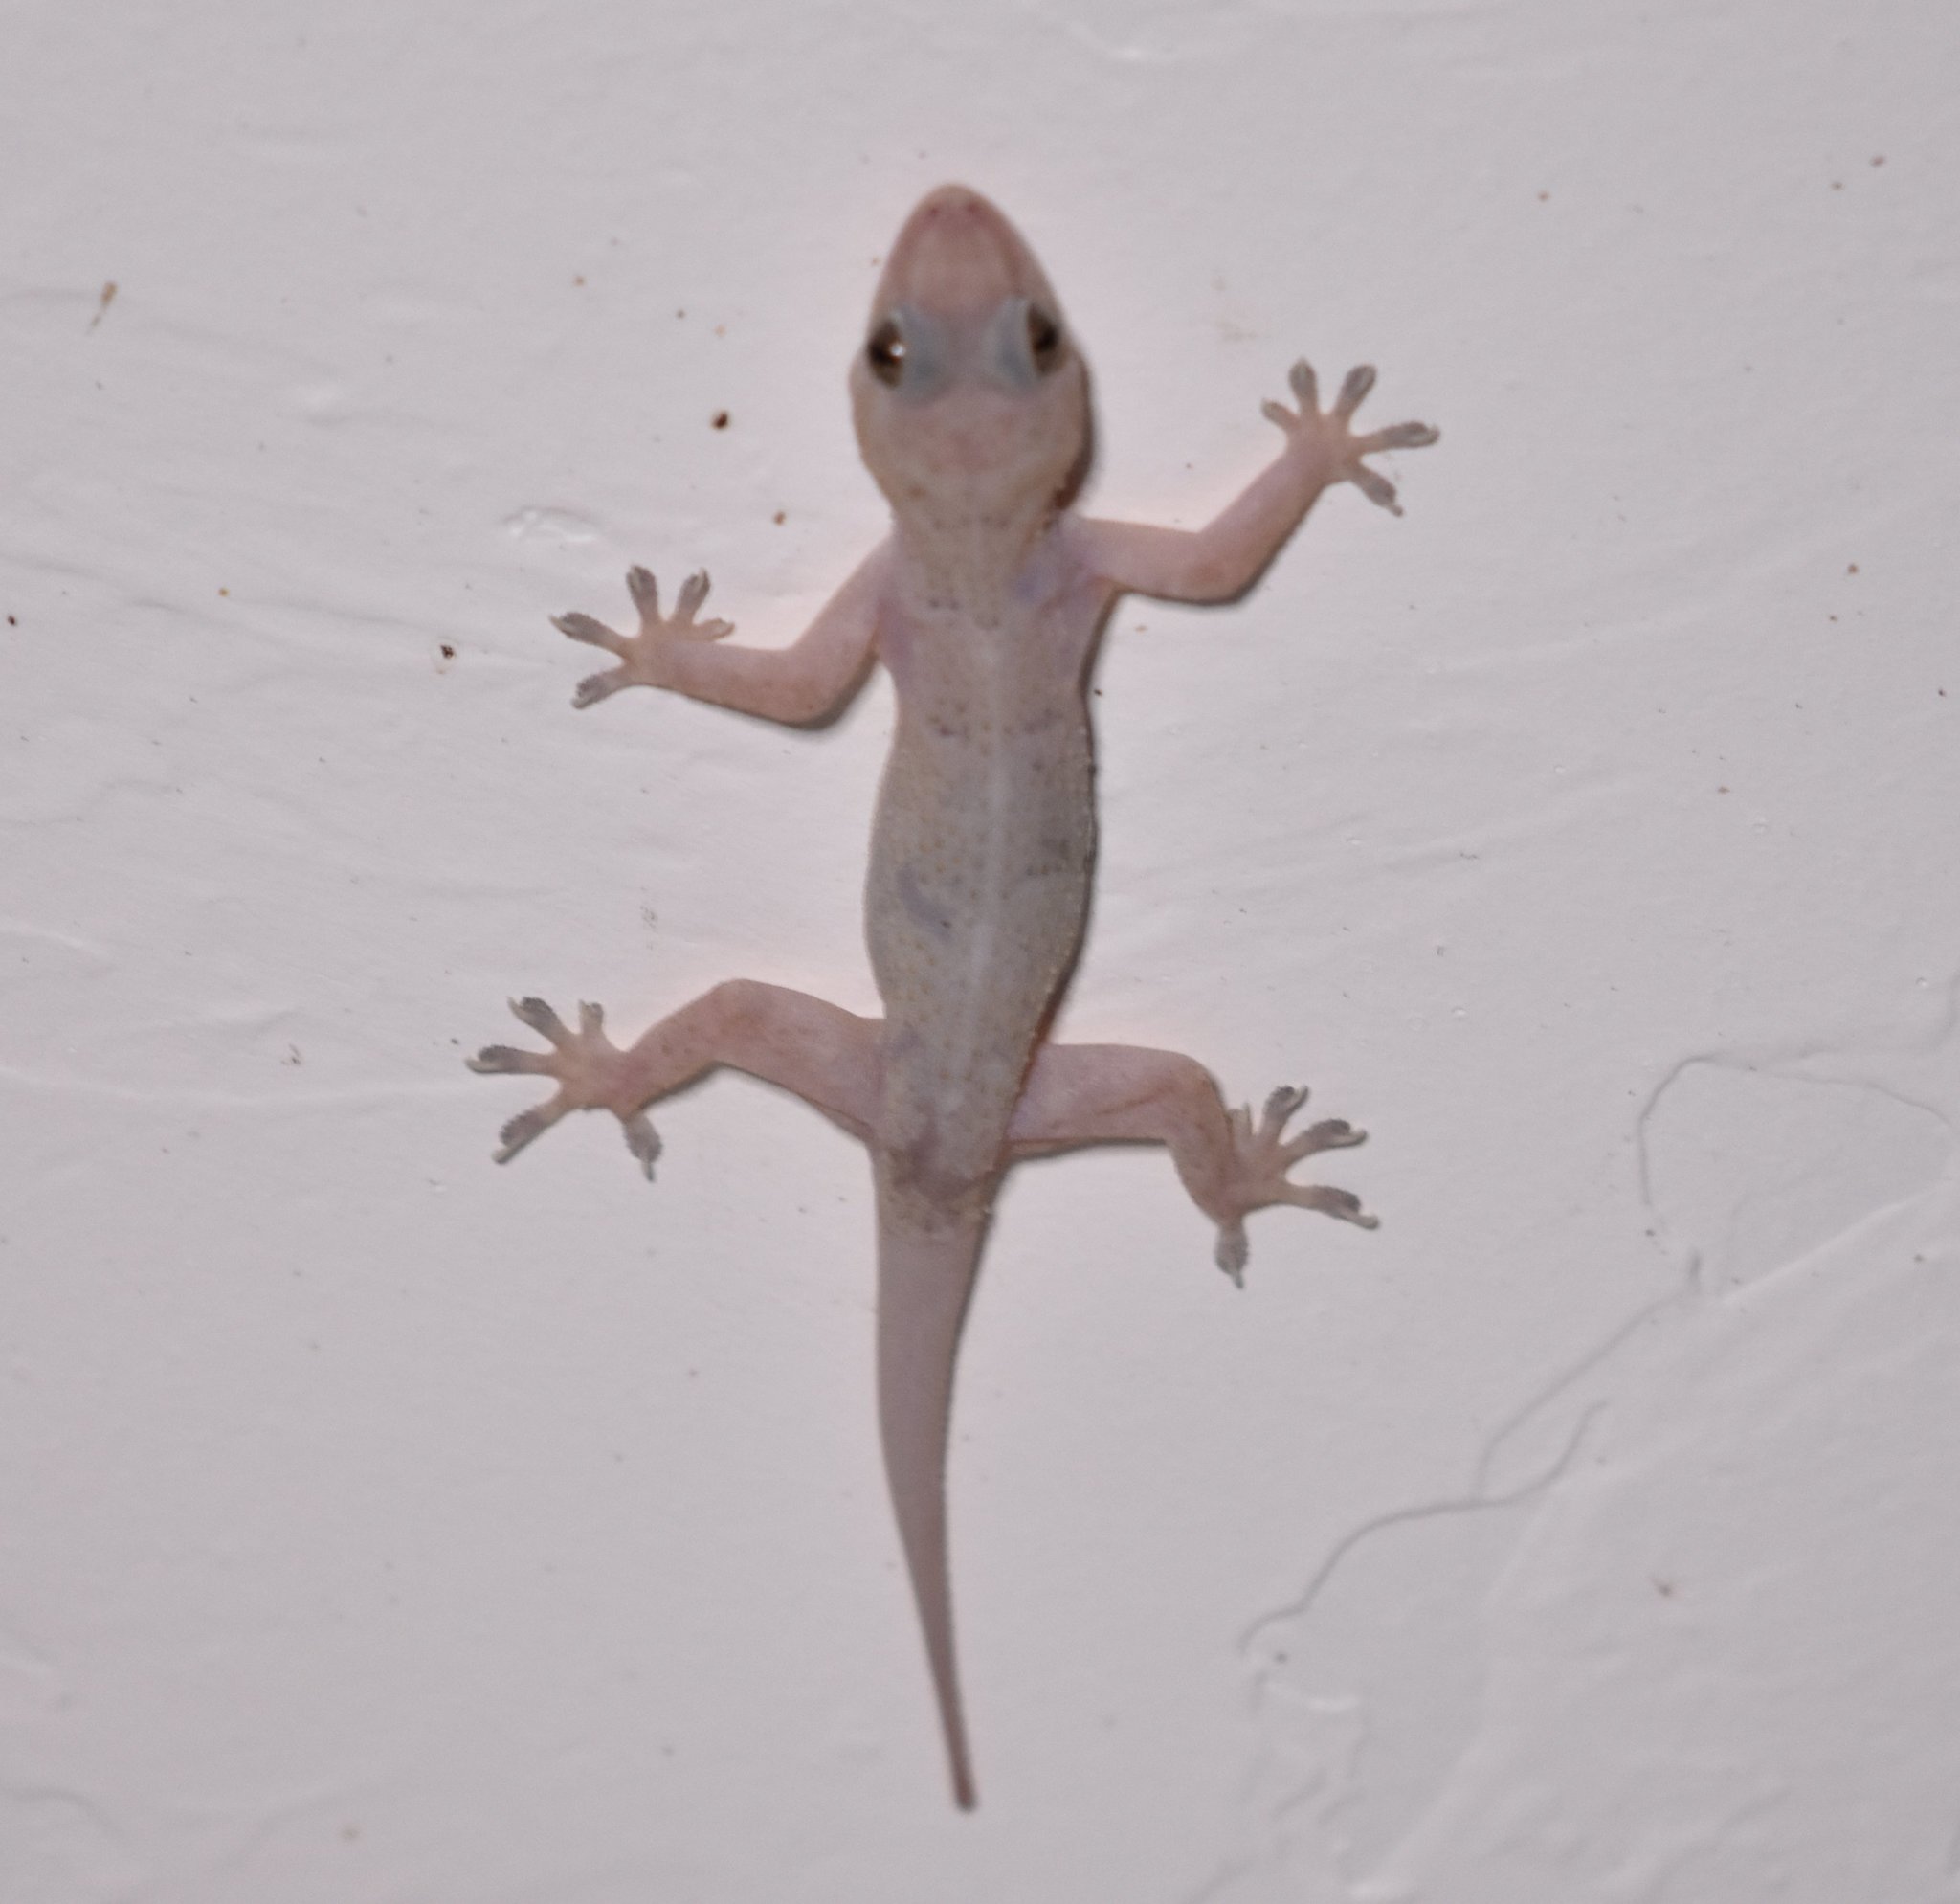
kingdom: Animalia
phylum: Chordata
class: Squamata
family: Gekkonidae
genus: Hemidactylus
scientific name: Hemidactylus mabouia
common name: House gecko
